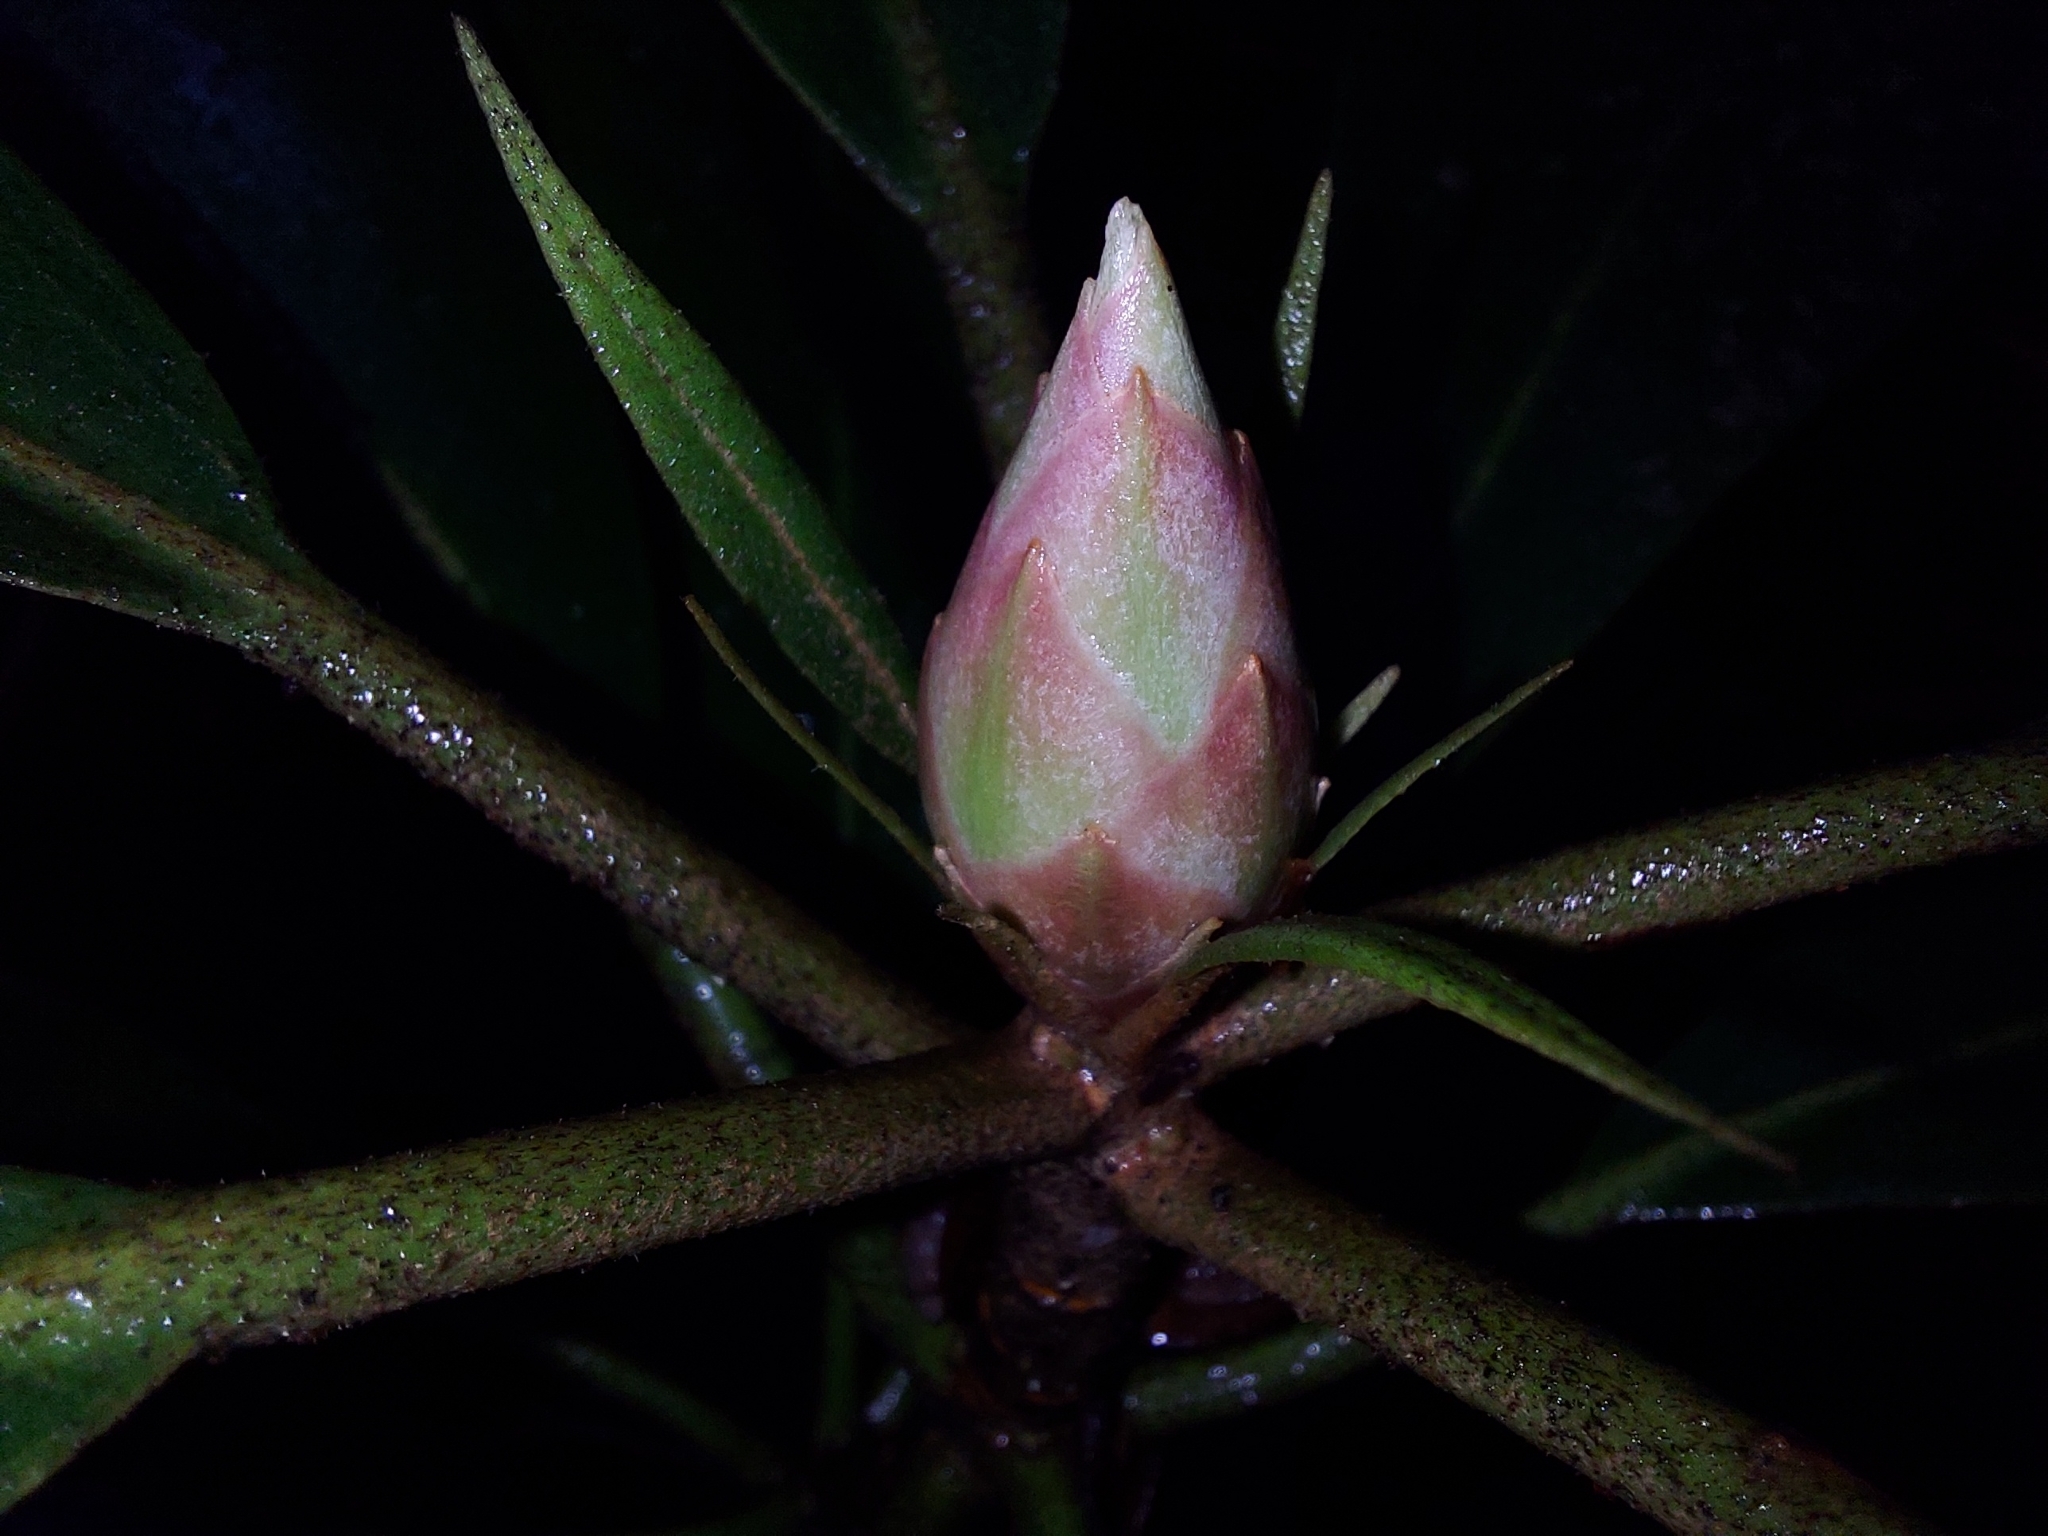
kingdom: Plantae
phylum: Tracheophyta
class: Magnoliopsida
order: Ericales
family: Ericaceae
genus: Rhododendron
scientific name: Rhododendron maximum
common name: Great rhododendron
